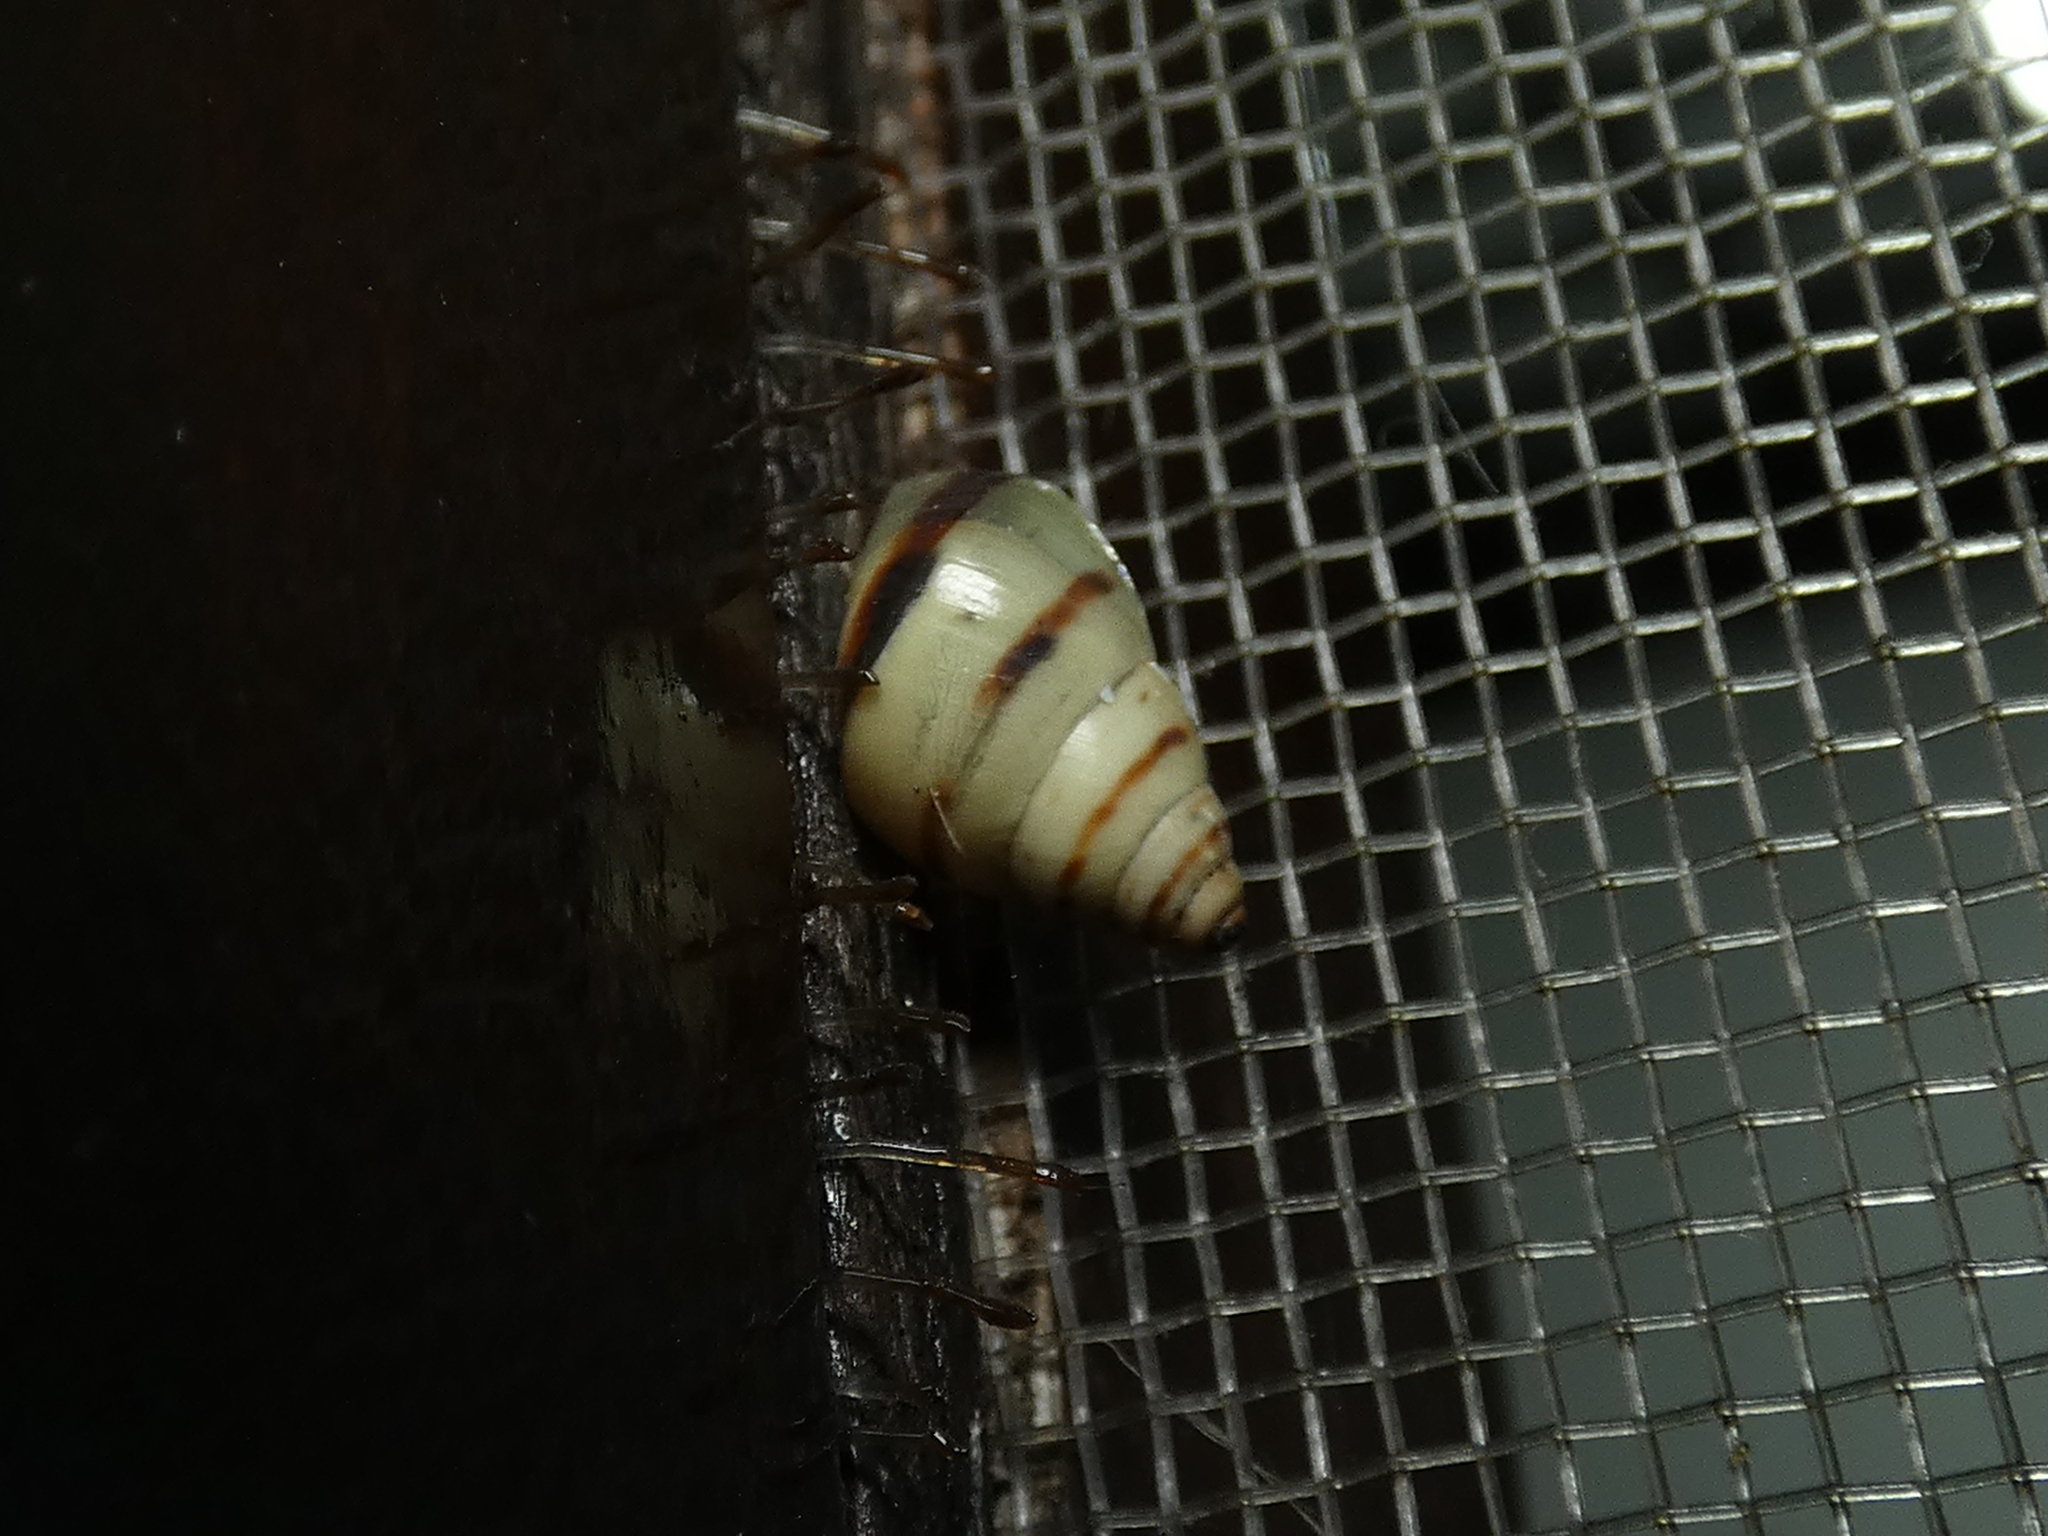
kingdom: Animalia
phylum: Mollusca
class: Gastropoda
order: Stylommatophora
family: Bulimulidae
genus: Drymaeus
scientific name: Drymaeus
